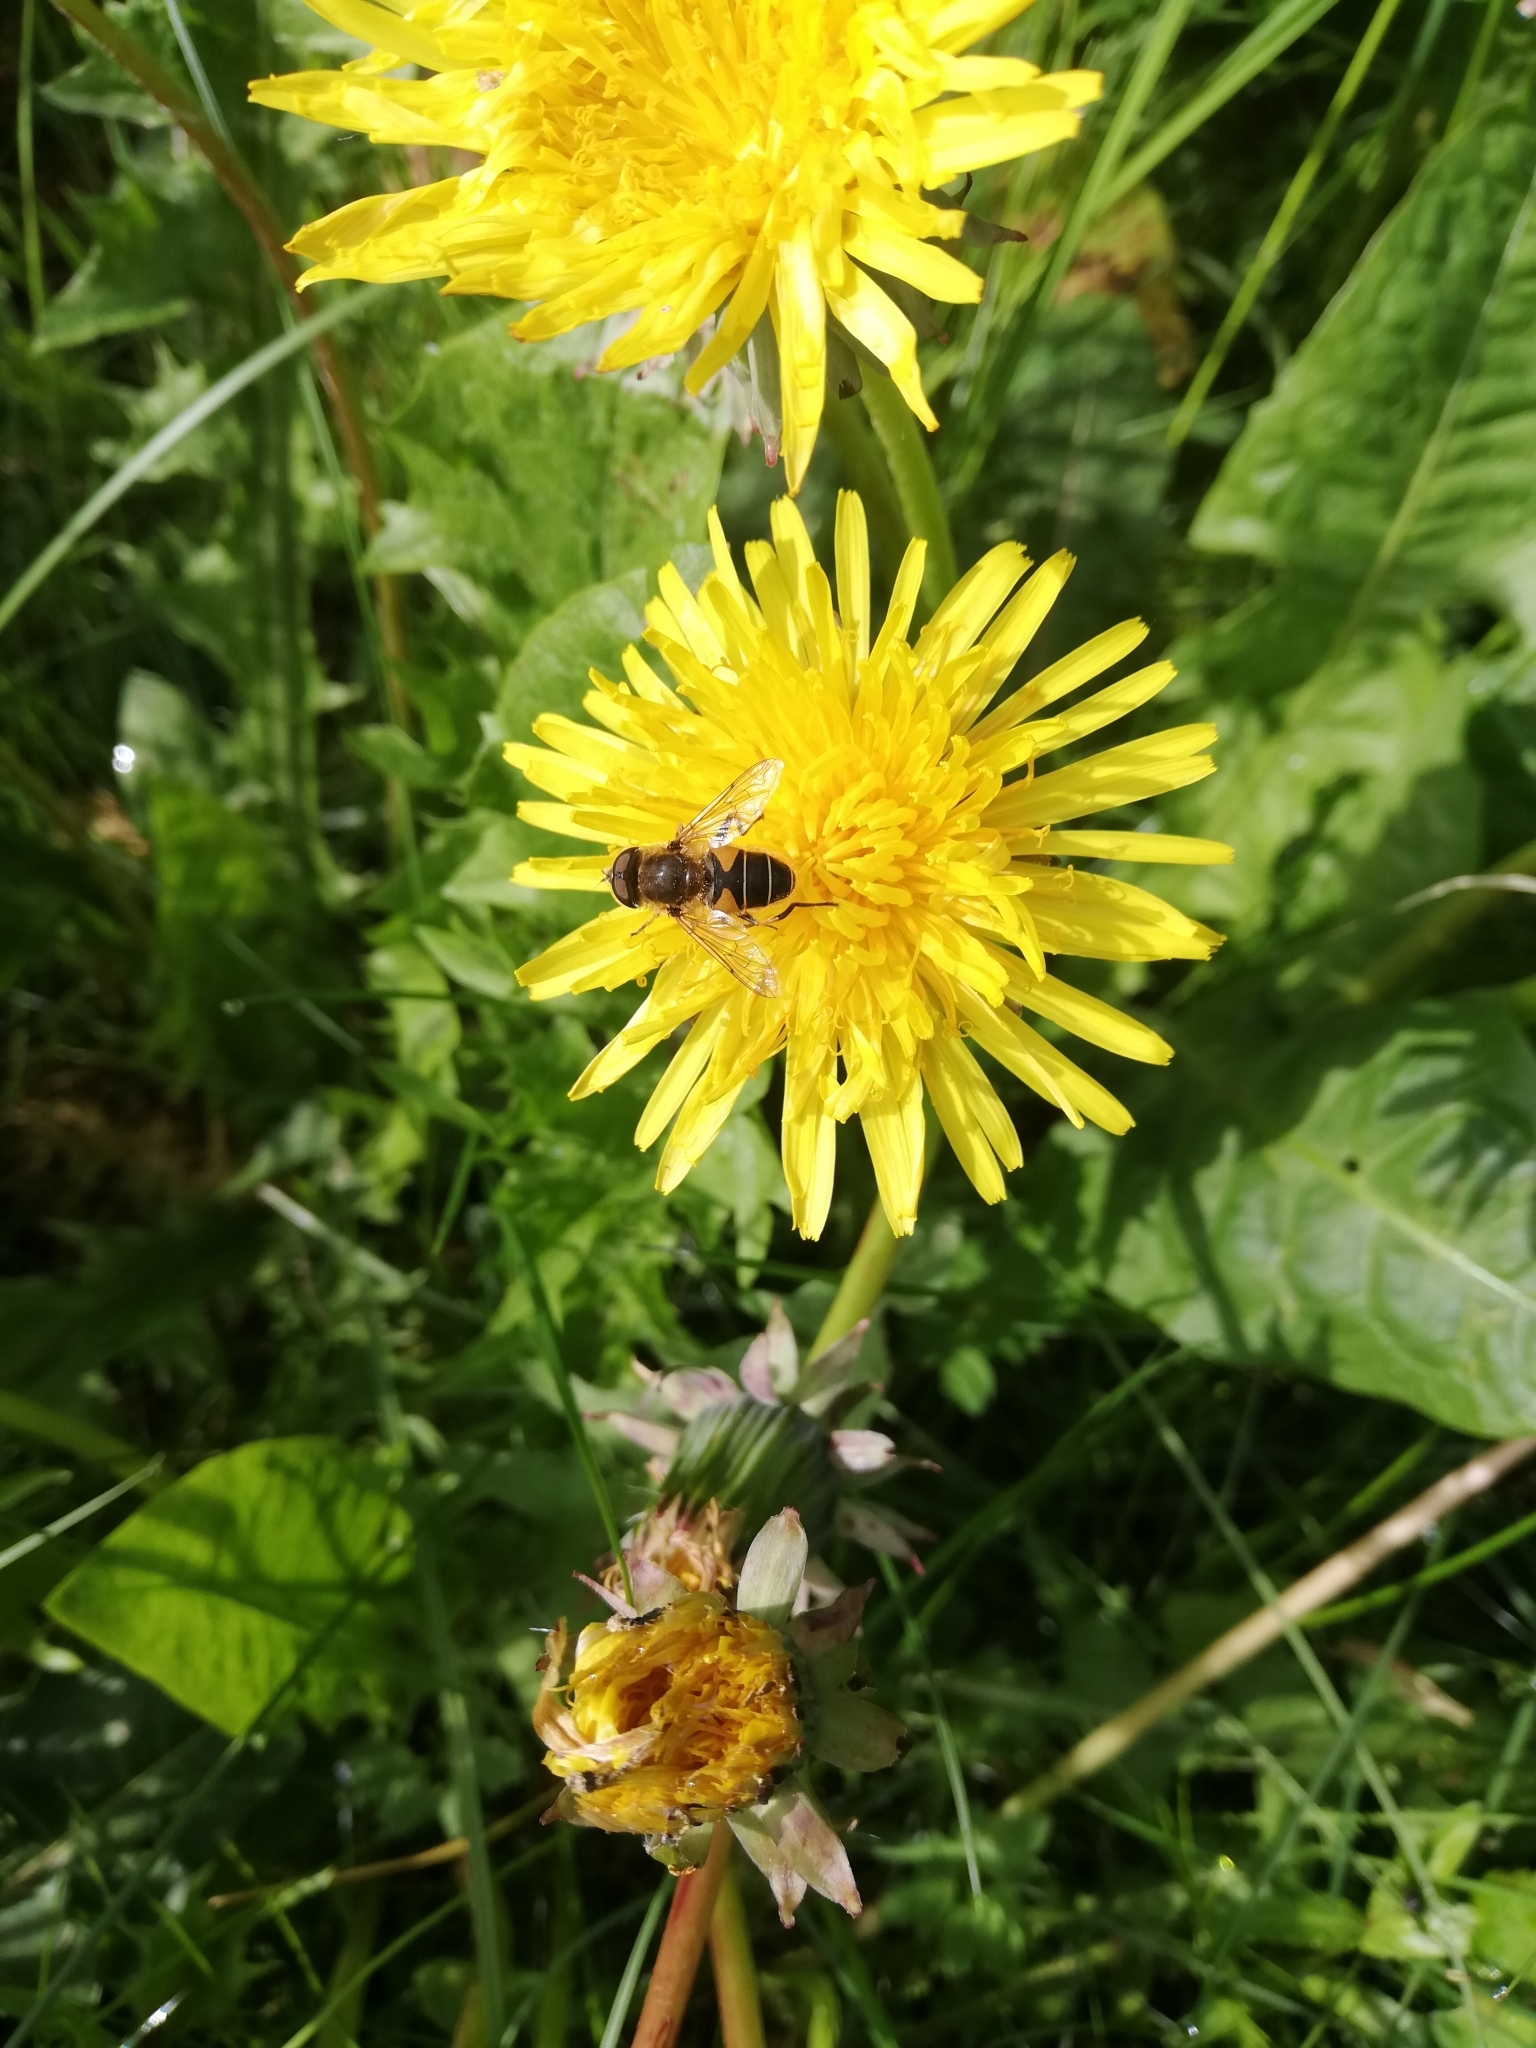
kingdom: Animalia
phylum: Arthropoda
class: Insecta
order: Diptera
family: Syrphidae
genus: Eristalis
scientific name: Eristalis nemorum
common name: Orange-spined drone fly
